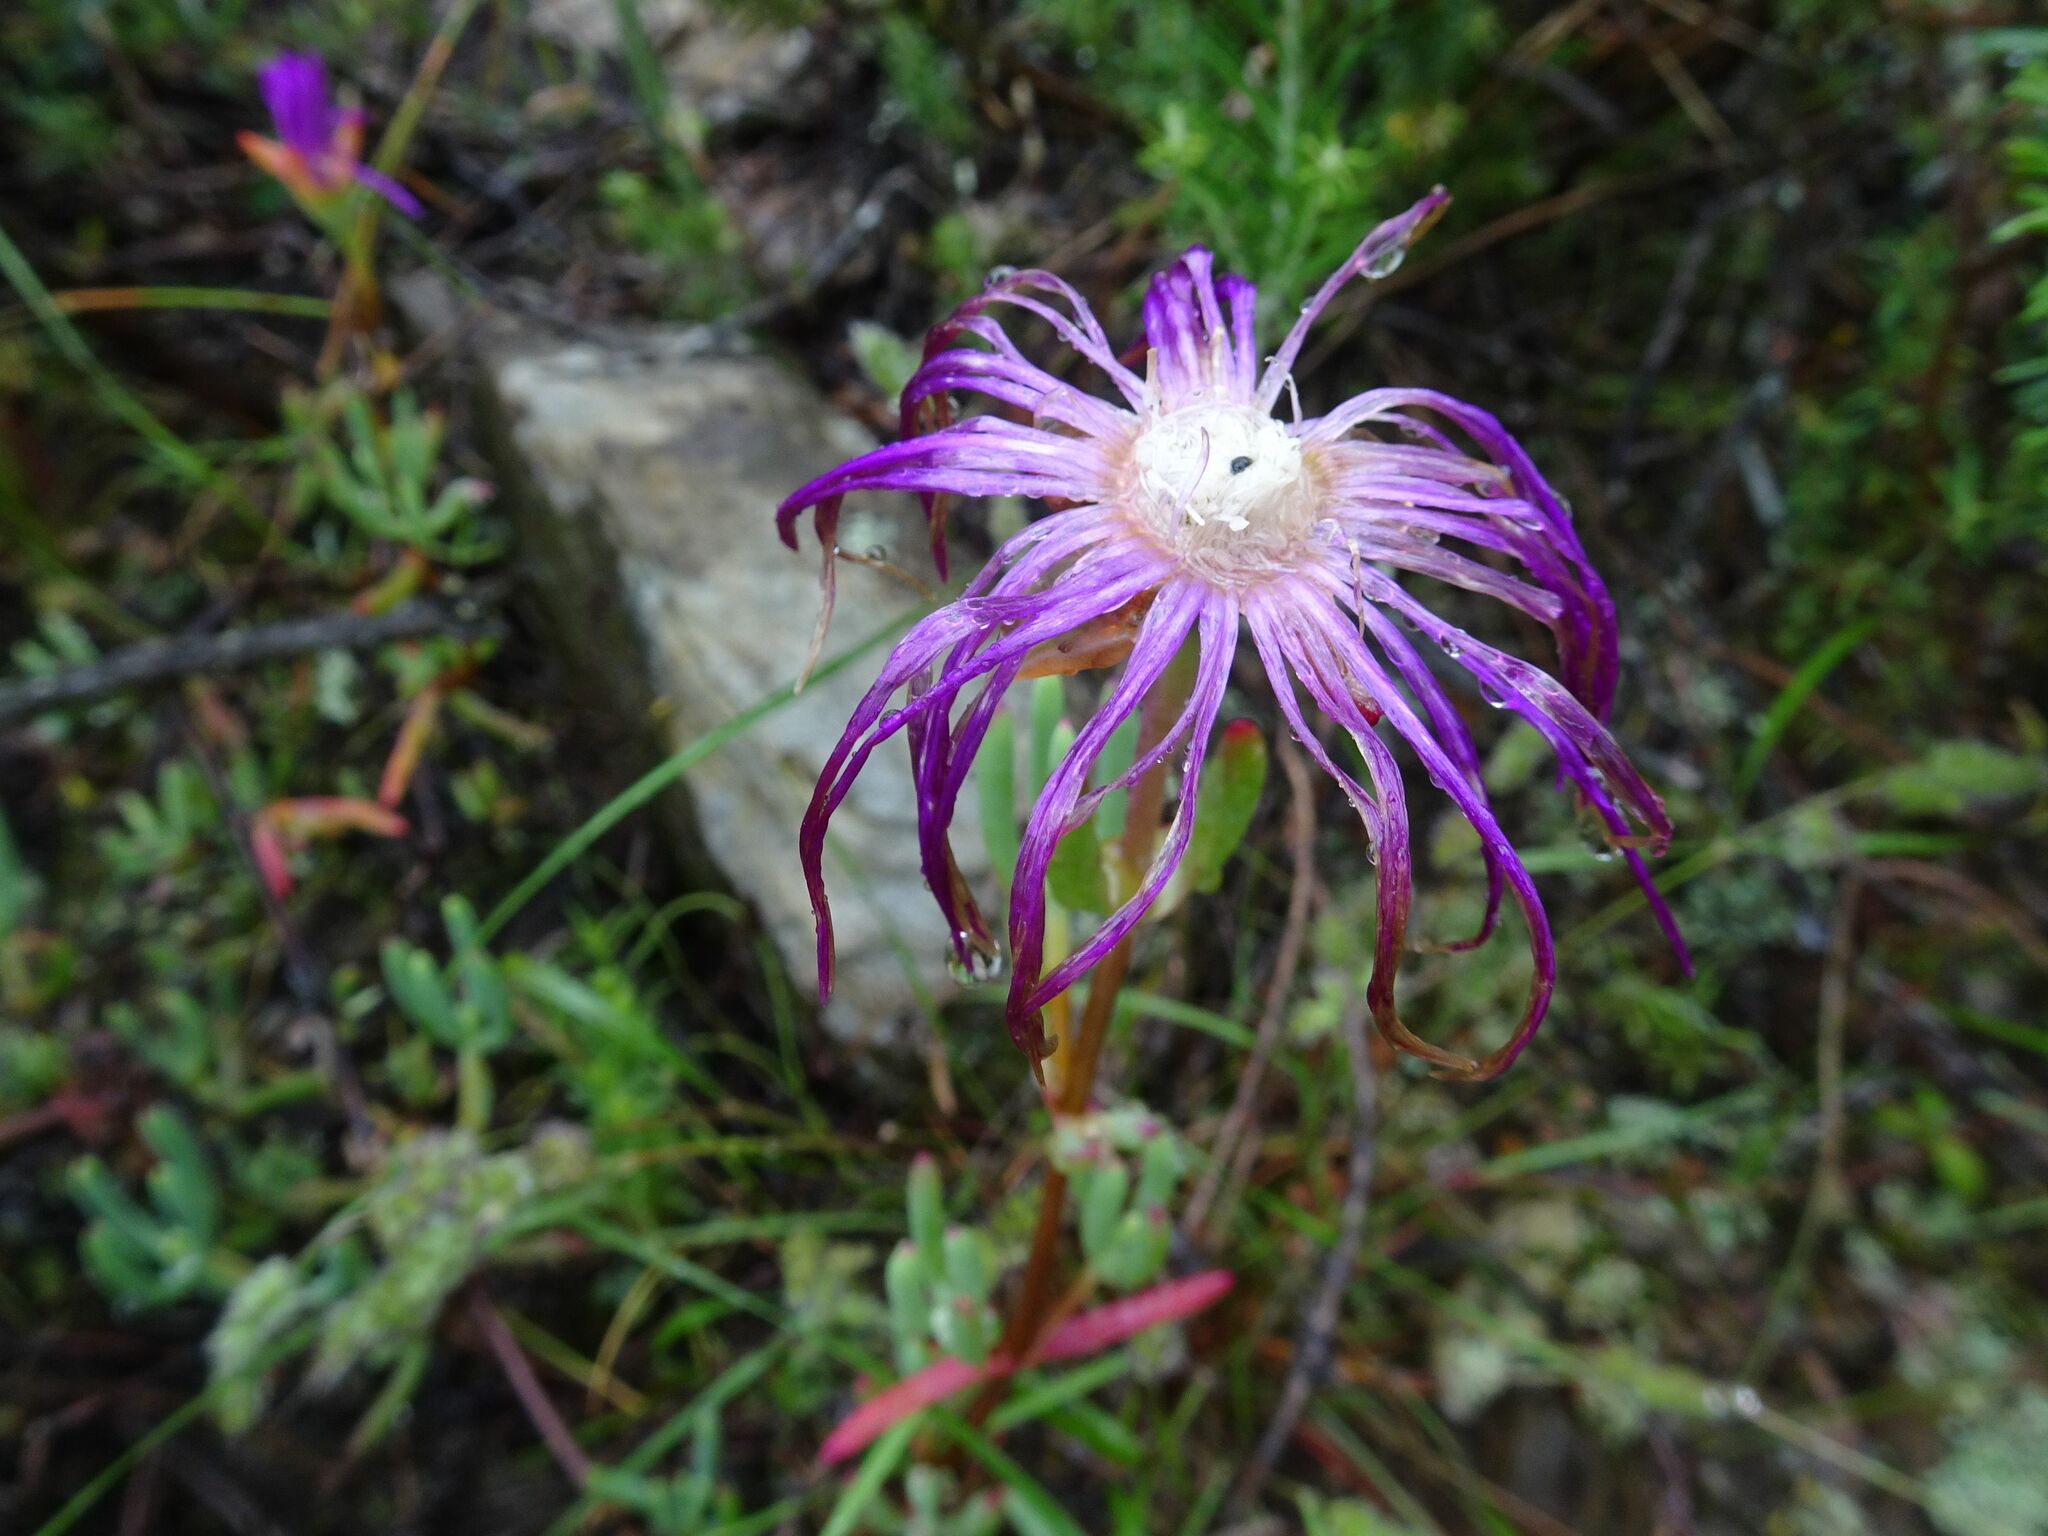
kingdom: Plantae
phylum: Tracheophyta
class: Magnoliopsida
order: Caryophyllales
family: Aizoaceae
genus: Lampranthus
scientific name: Lampranthus haworthii
